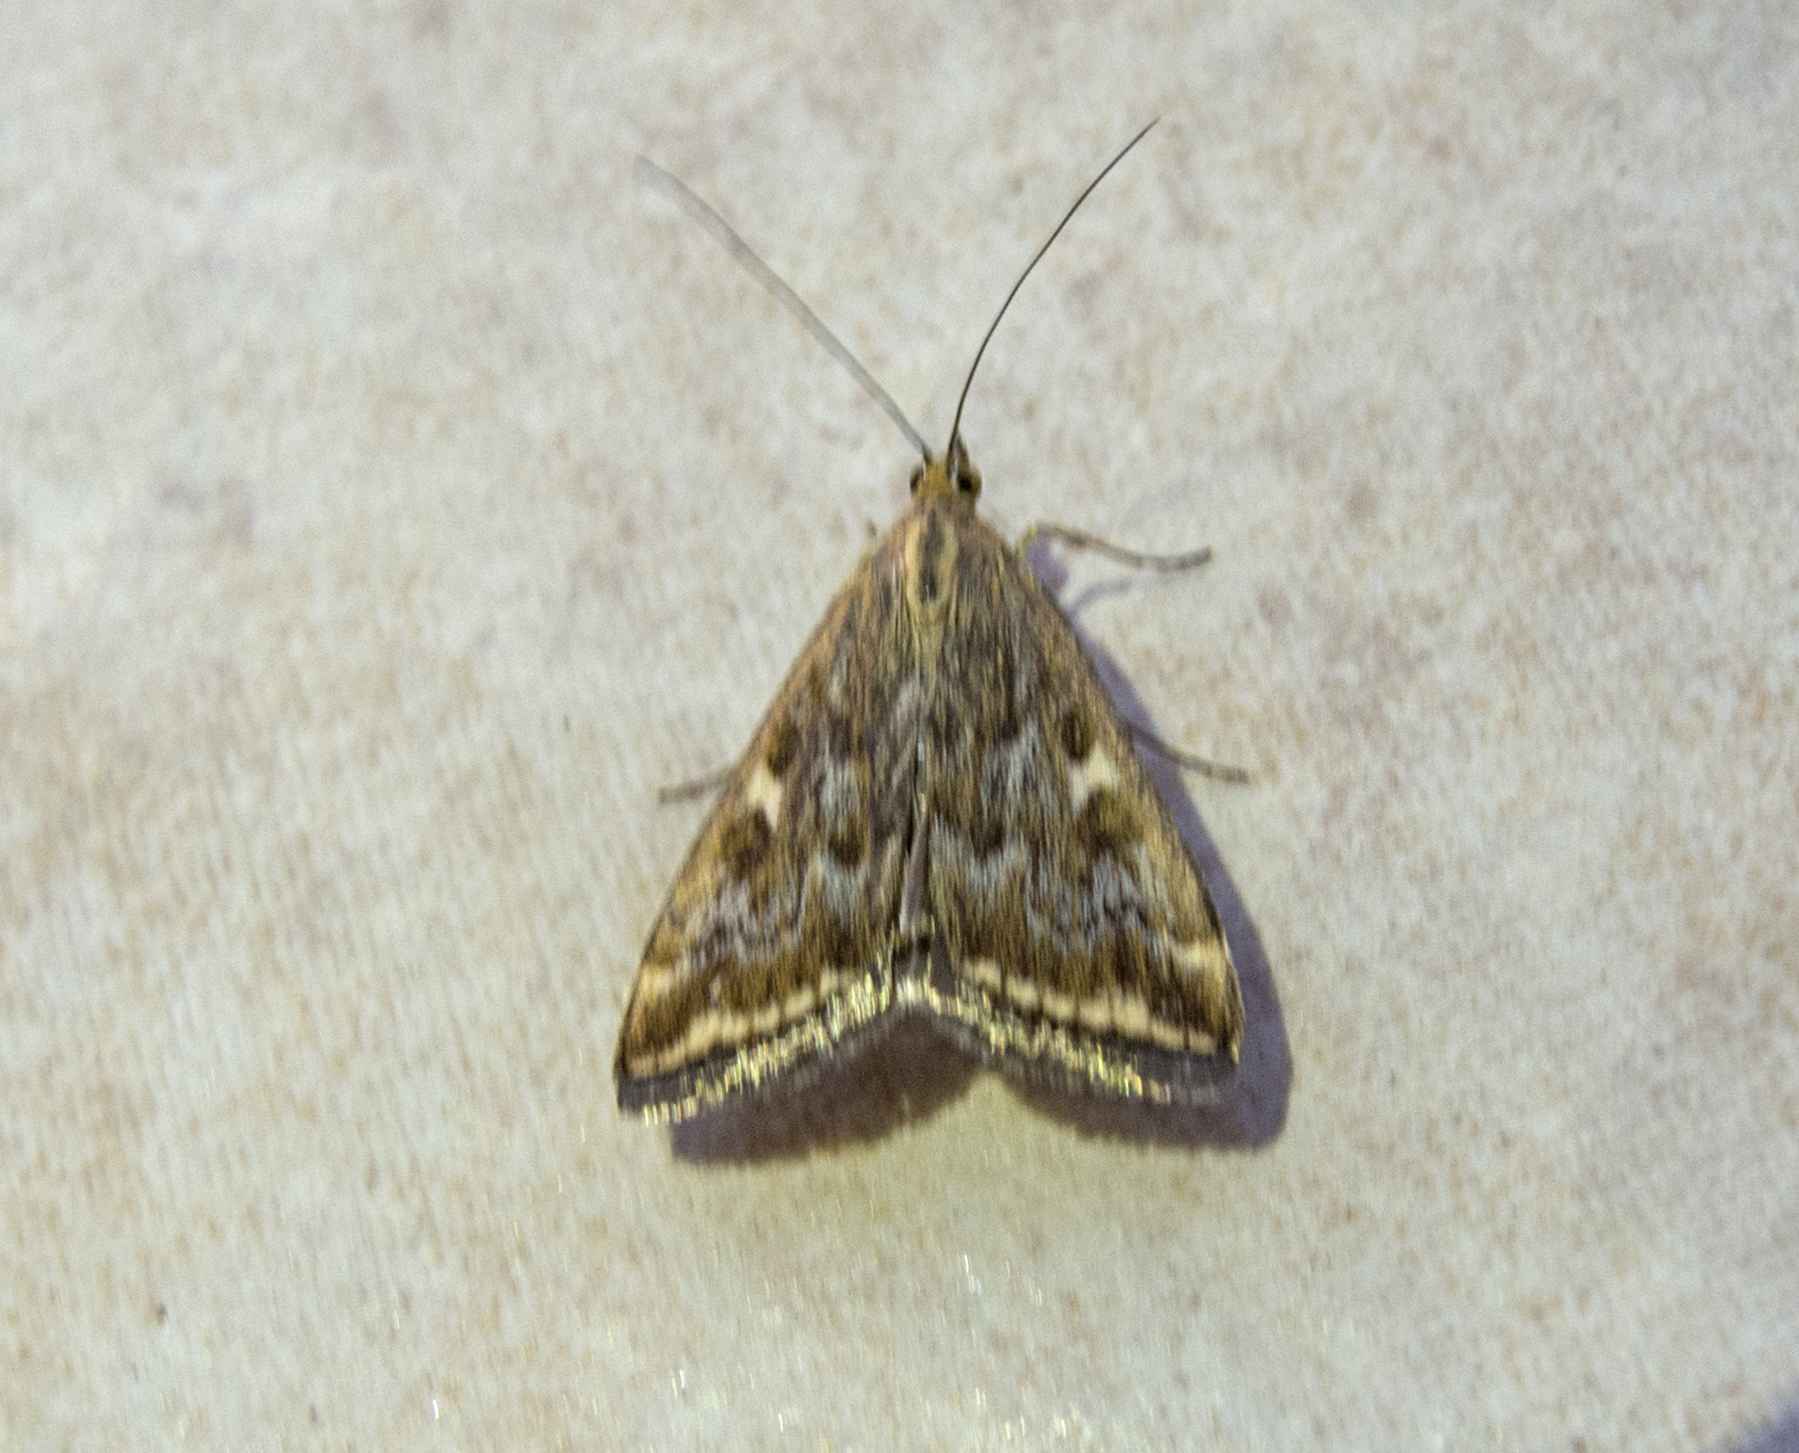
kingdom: Animalia
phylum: Arthropoda
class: Insecta
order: Lepidoptera
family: Crambidae
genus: Loxostege
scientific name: Loxostege sticticalis
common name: Crambid moth
